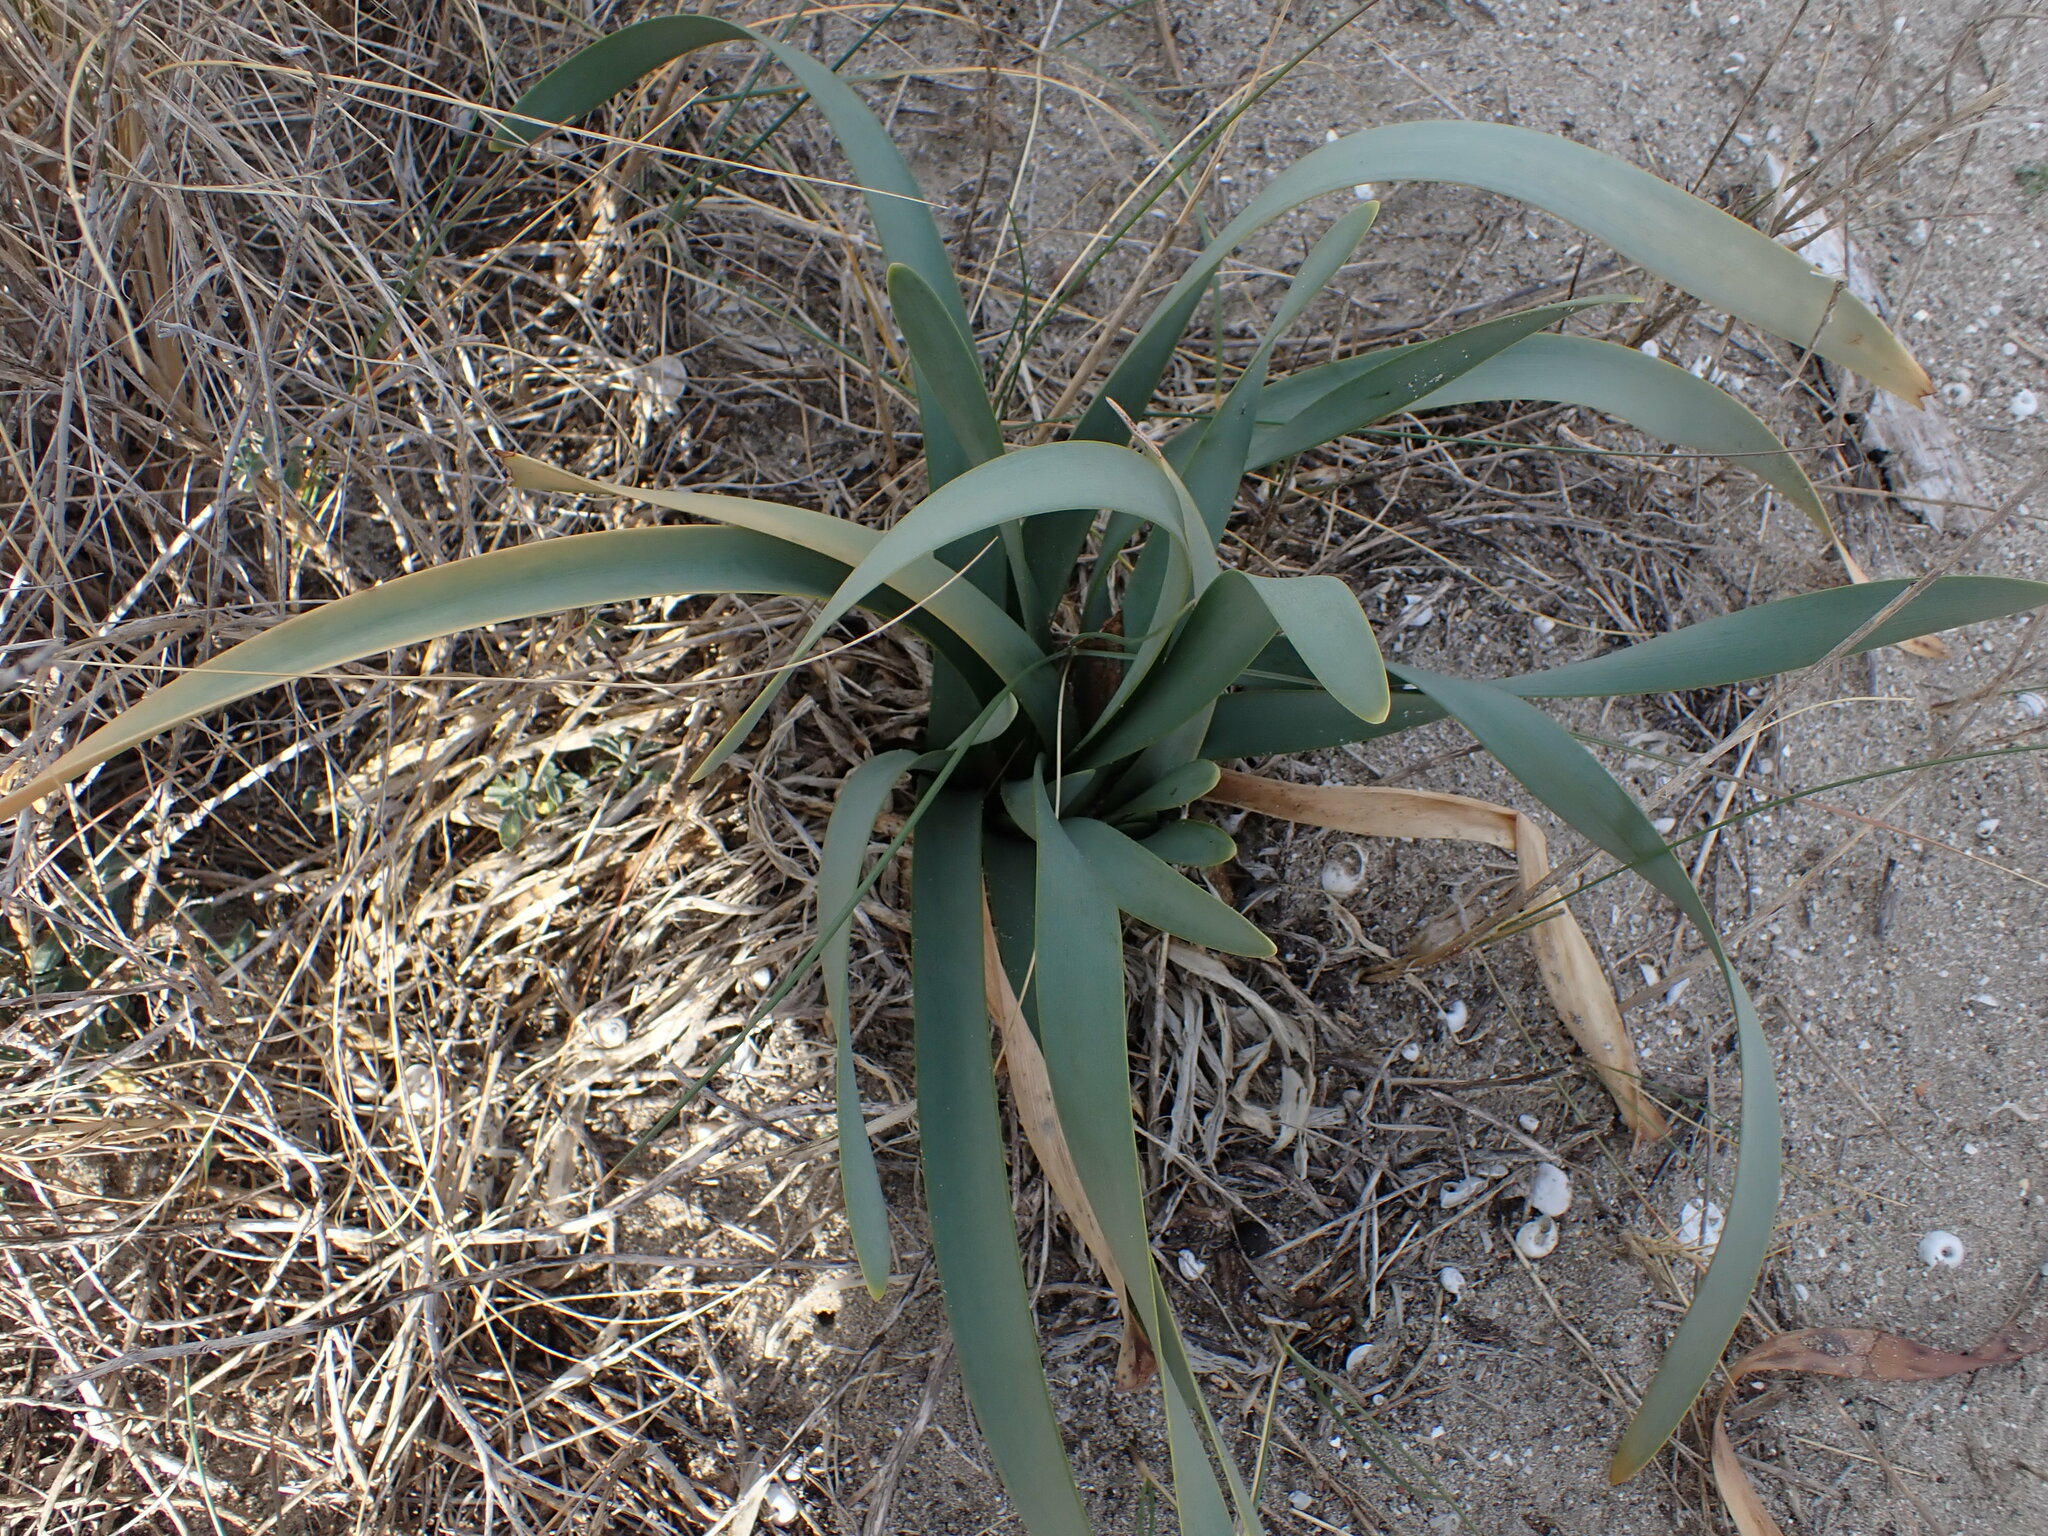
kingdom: Plantae
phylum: Tracheophyta
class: Liliopsida
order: Asparagales
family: Amaryllidaceae
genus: Pancratium
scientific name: Pancratium maritimum
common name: Sea-daffodil
